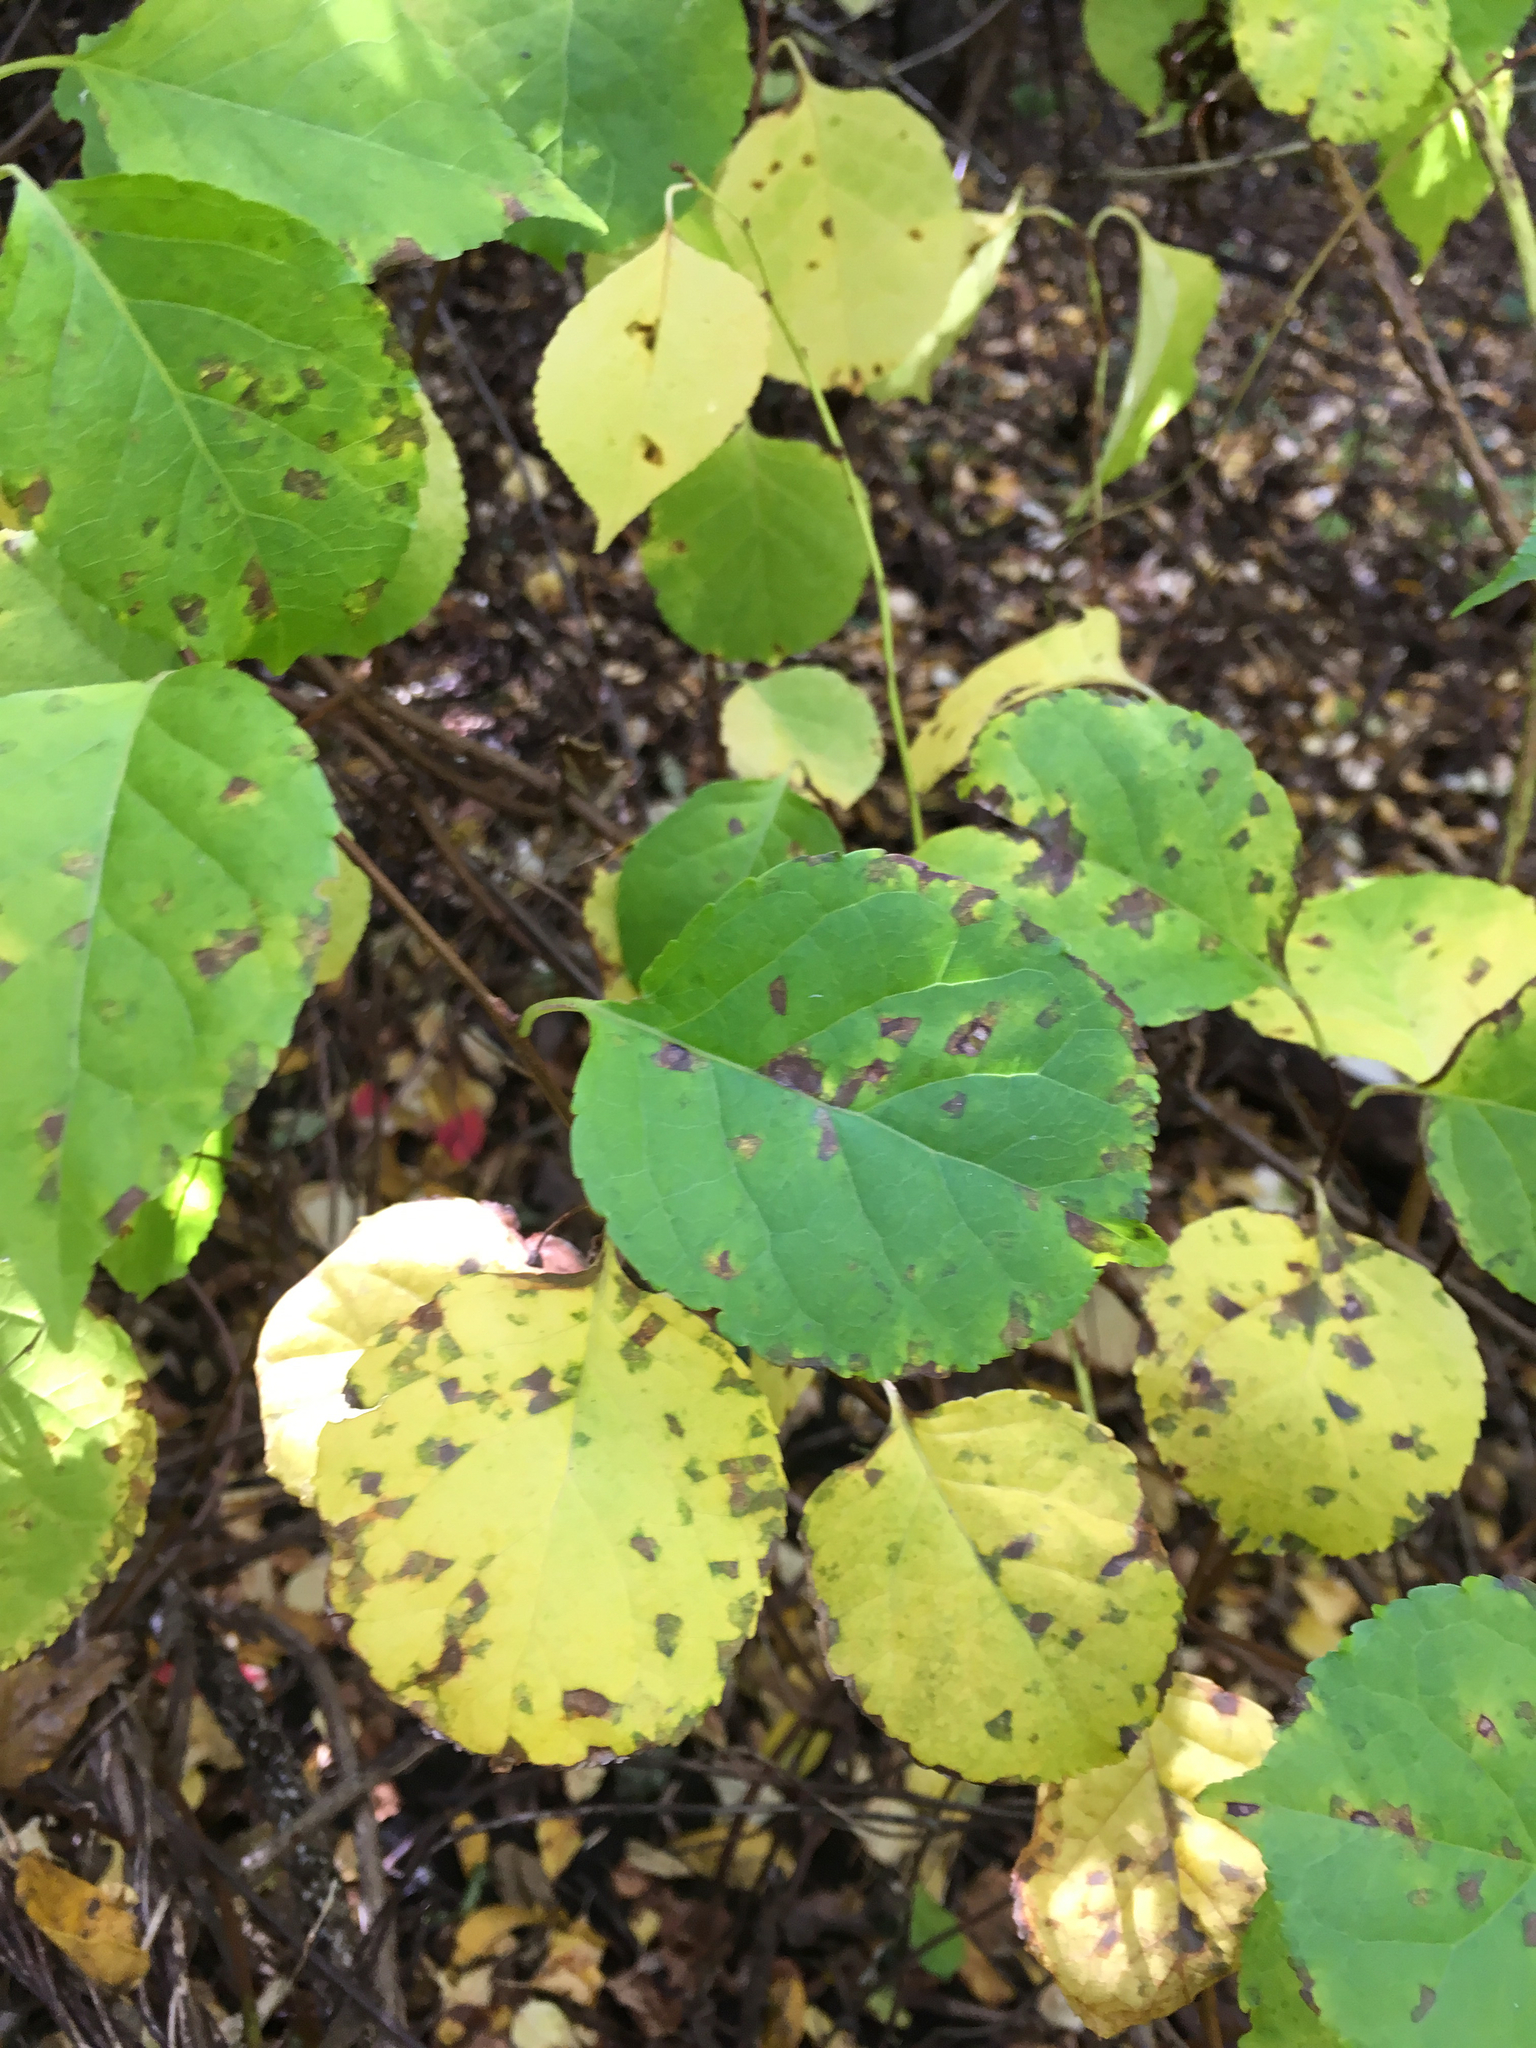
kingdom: Plantae
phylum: Tracheophyta
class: Magnoliopsida
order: Celastrales
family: Celastraceae
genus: Celastrus
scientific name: Celastrus orbiculatus
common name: Oriental bittersweet
